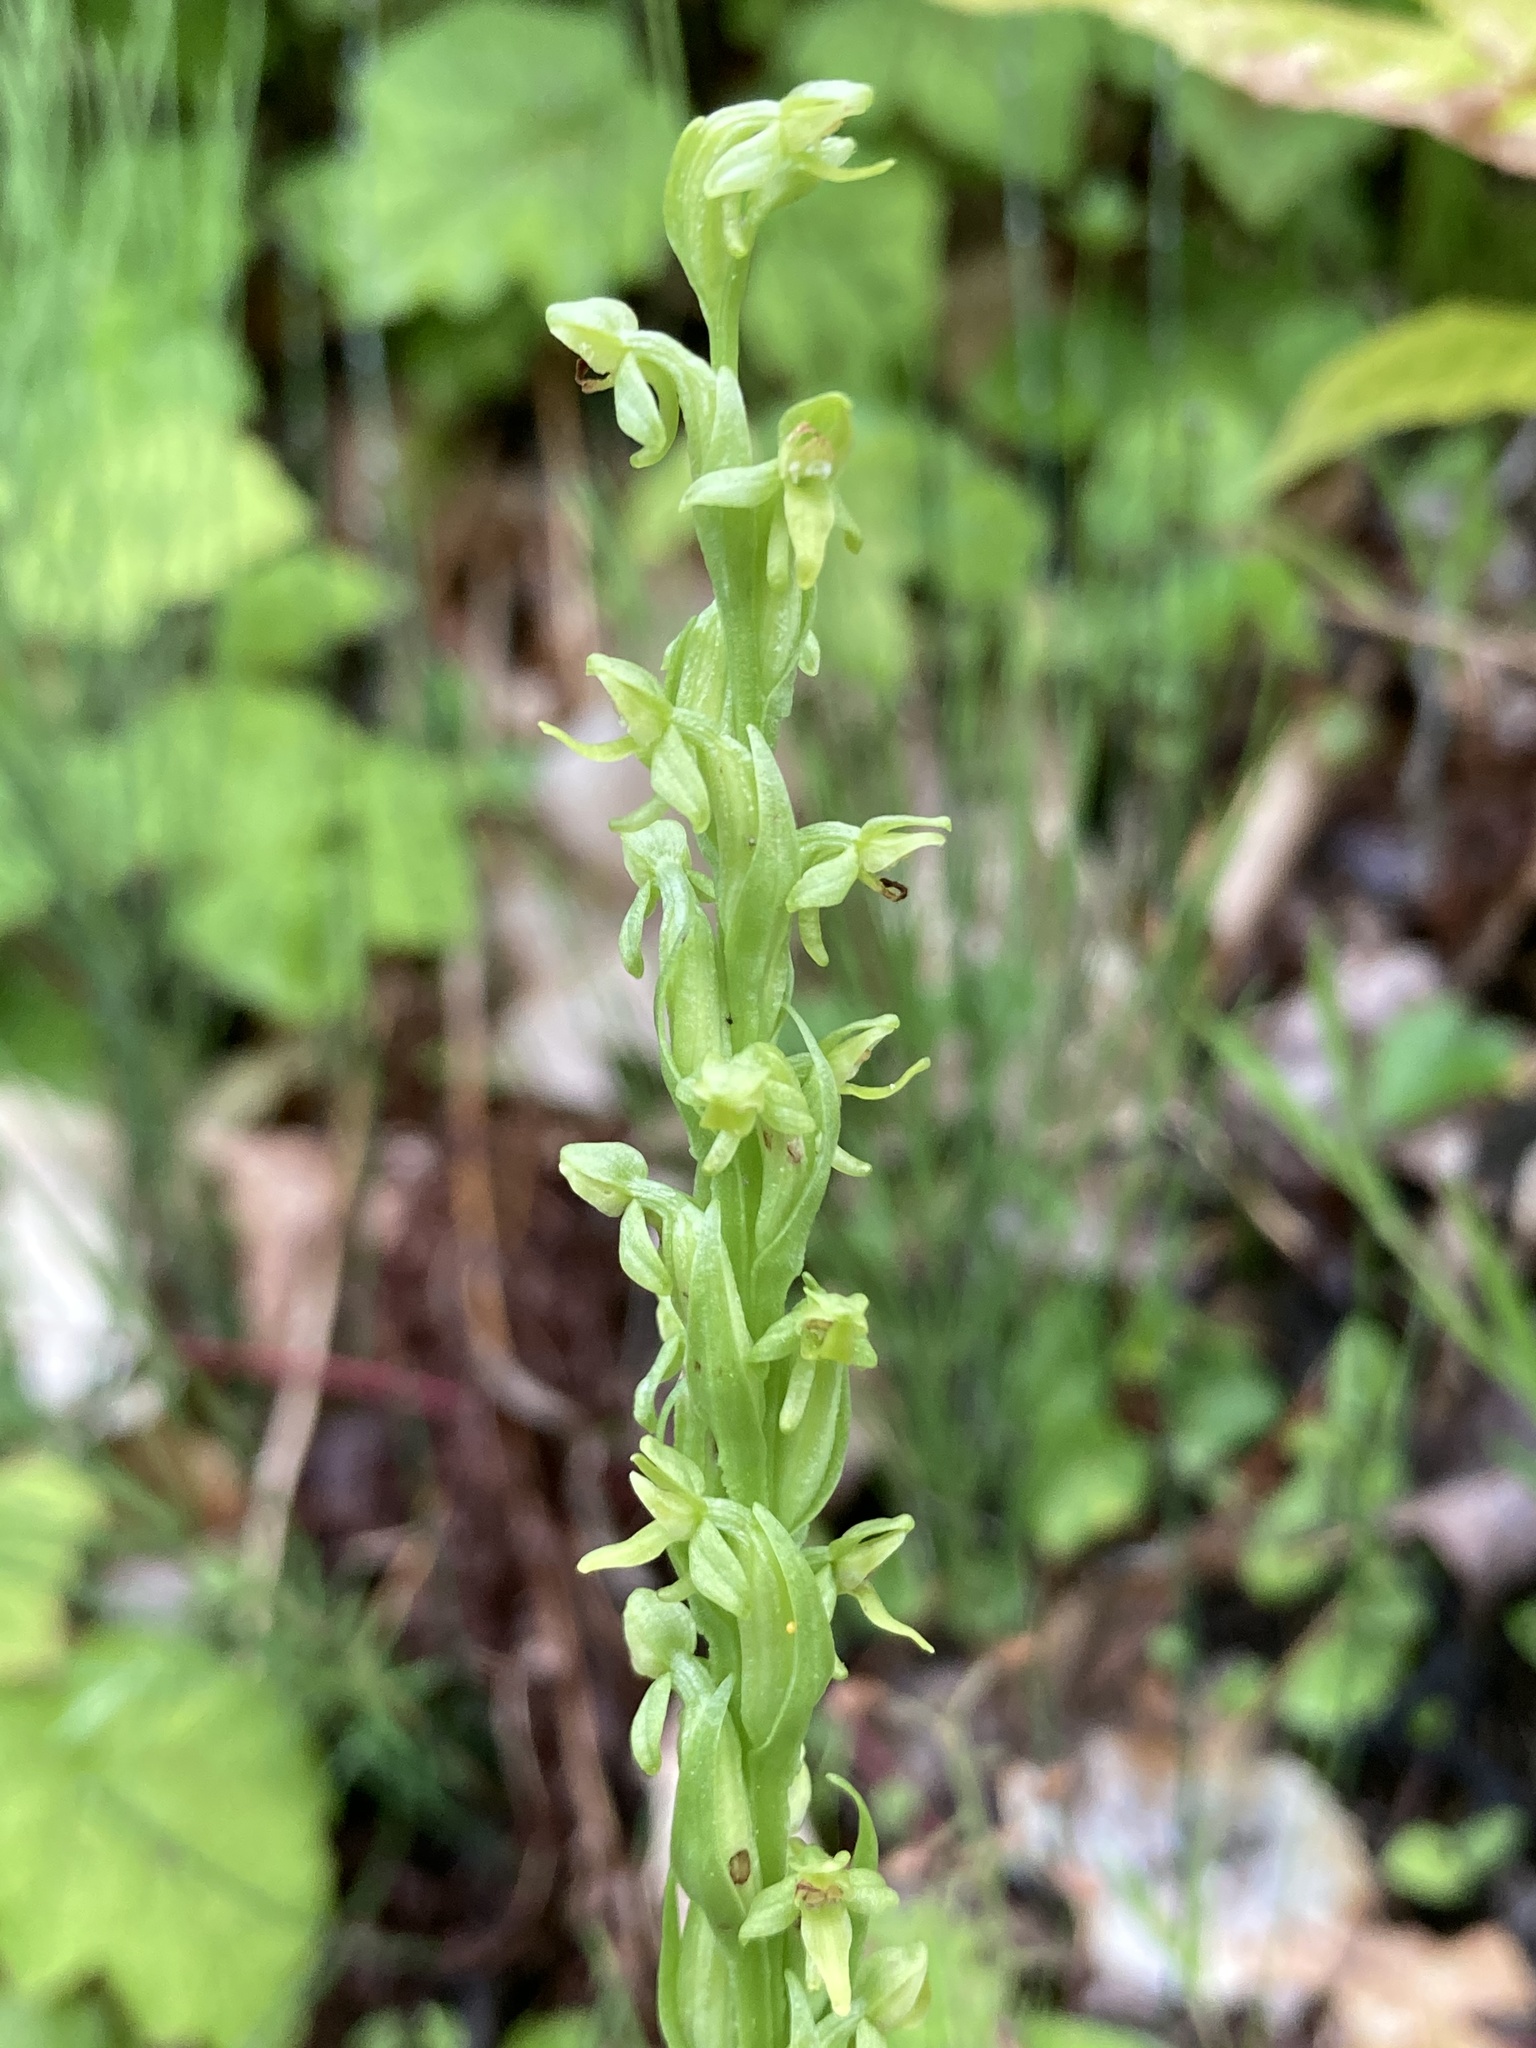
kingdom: Plantae
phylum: Tracheophyta
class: Liliopsida
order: Asparagales
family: Orchidaceae
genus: Platanthera
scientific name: Platanthera aquilonis
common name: Northern green orchid
